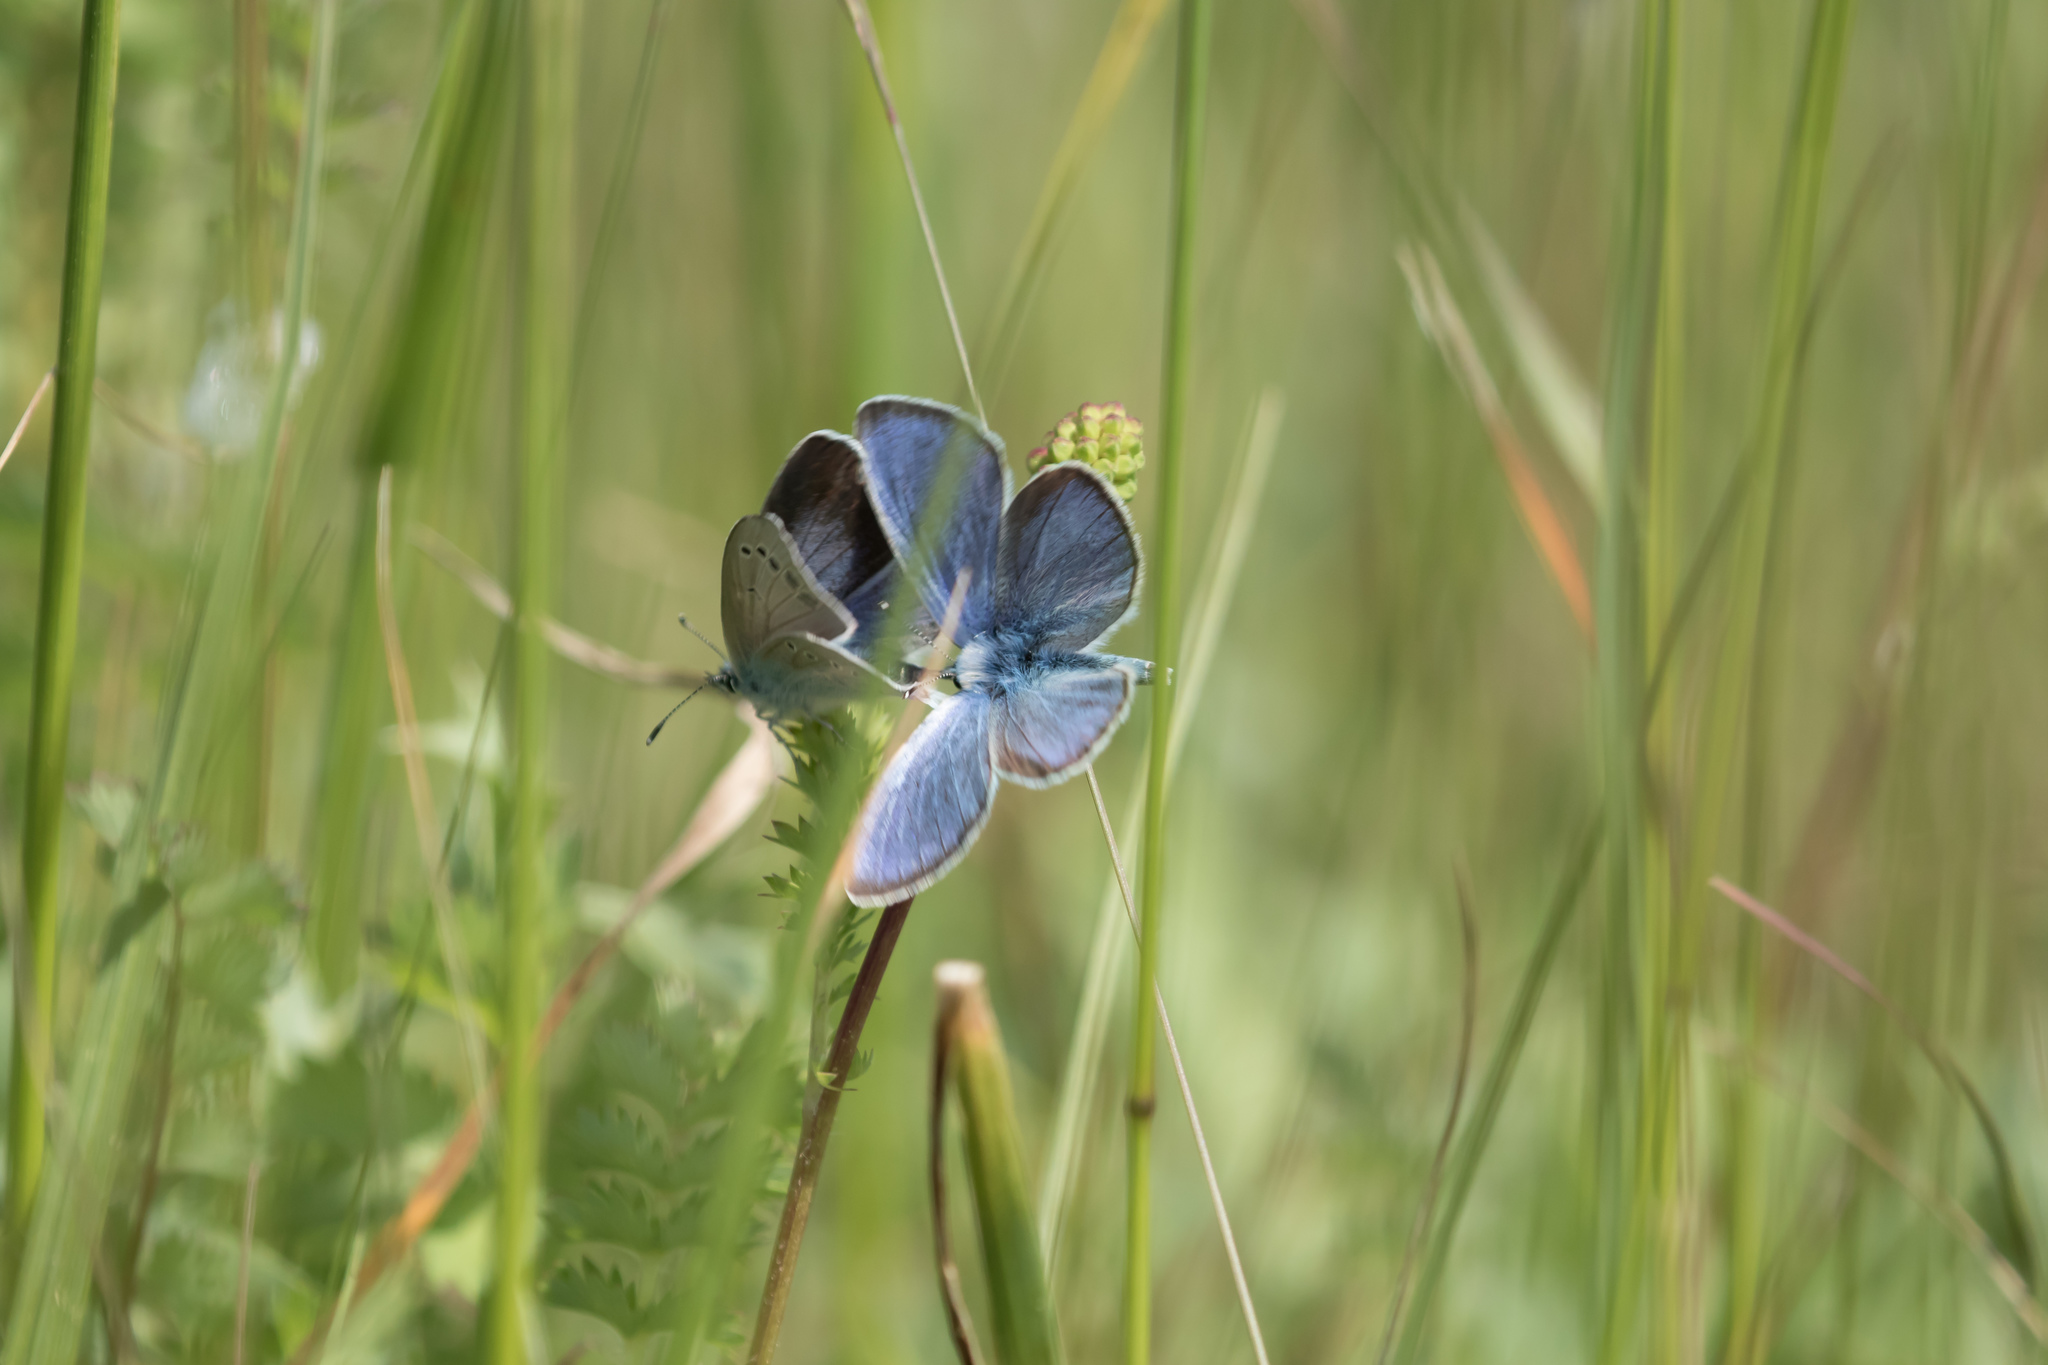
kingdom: Animalia
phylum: Arthropoda
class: Insecta
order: Lepidoptera
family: Lycaenidae
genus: Glaucopsyche
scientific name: Glaucopsyche alexis
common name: Green-underside blue
